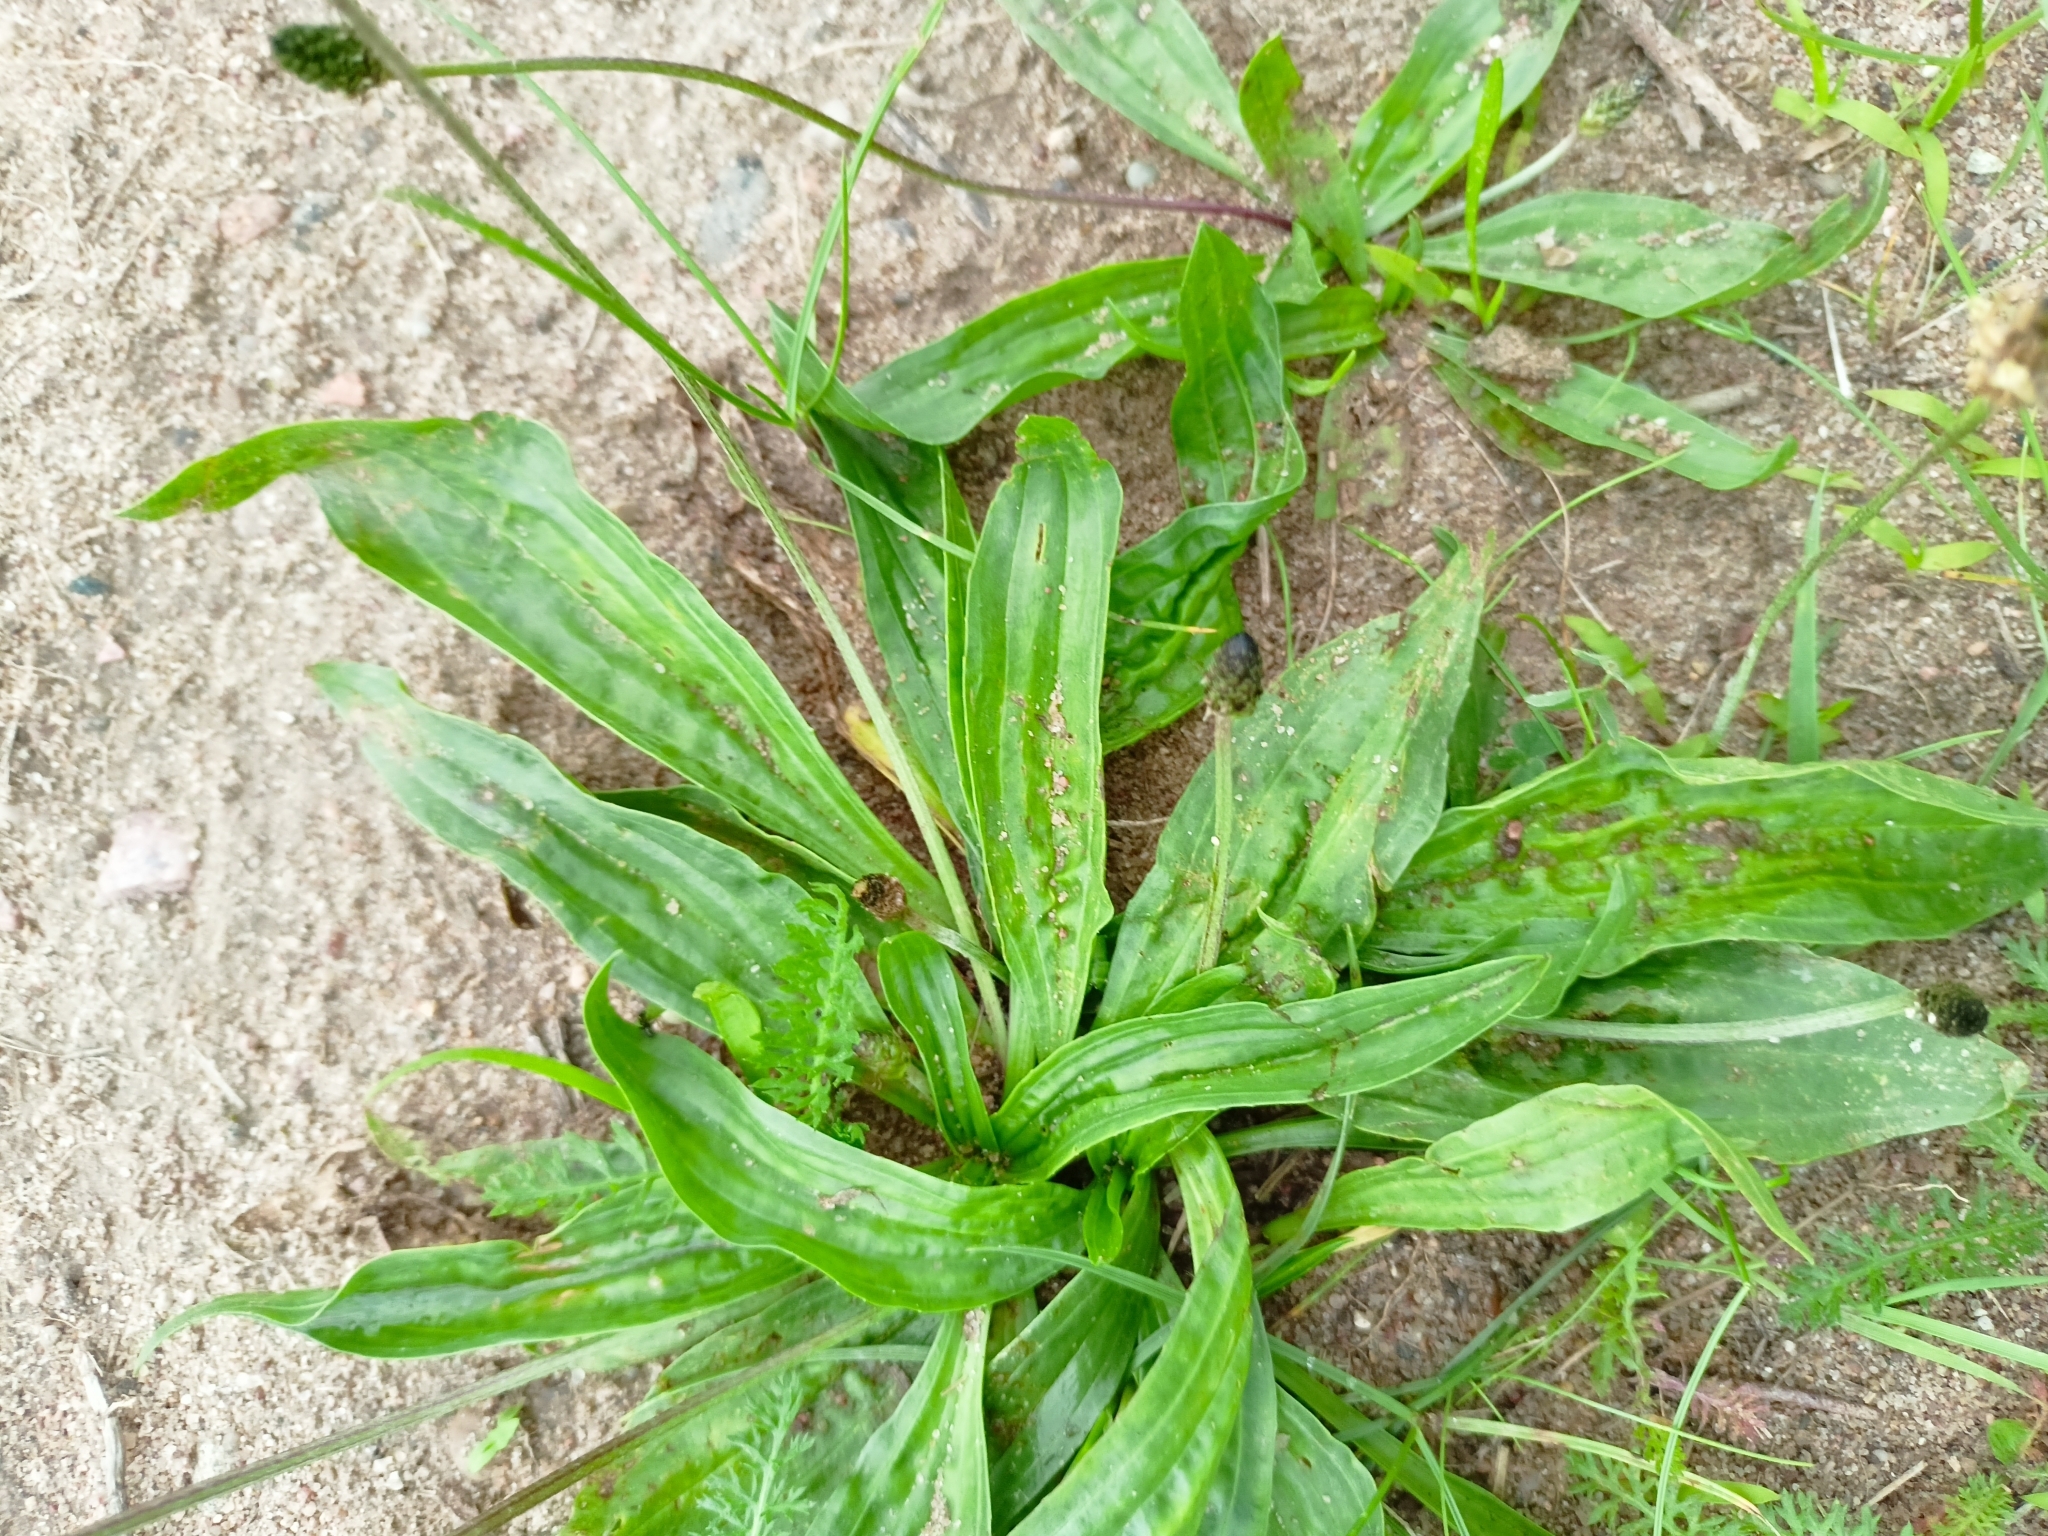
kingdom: Plantae
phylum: Tracheophyta
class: Magnoliopsida
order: Lamiales
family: Plantaginaceae
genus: Plantago
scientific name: Plantago lanceolata
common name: Ribwort plantain
